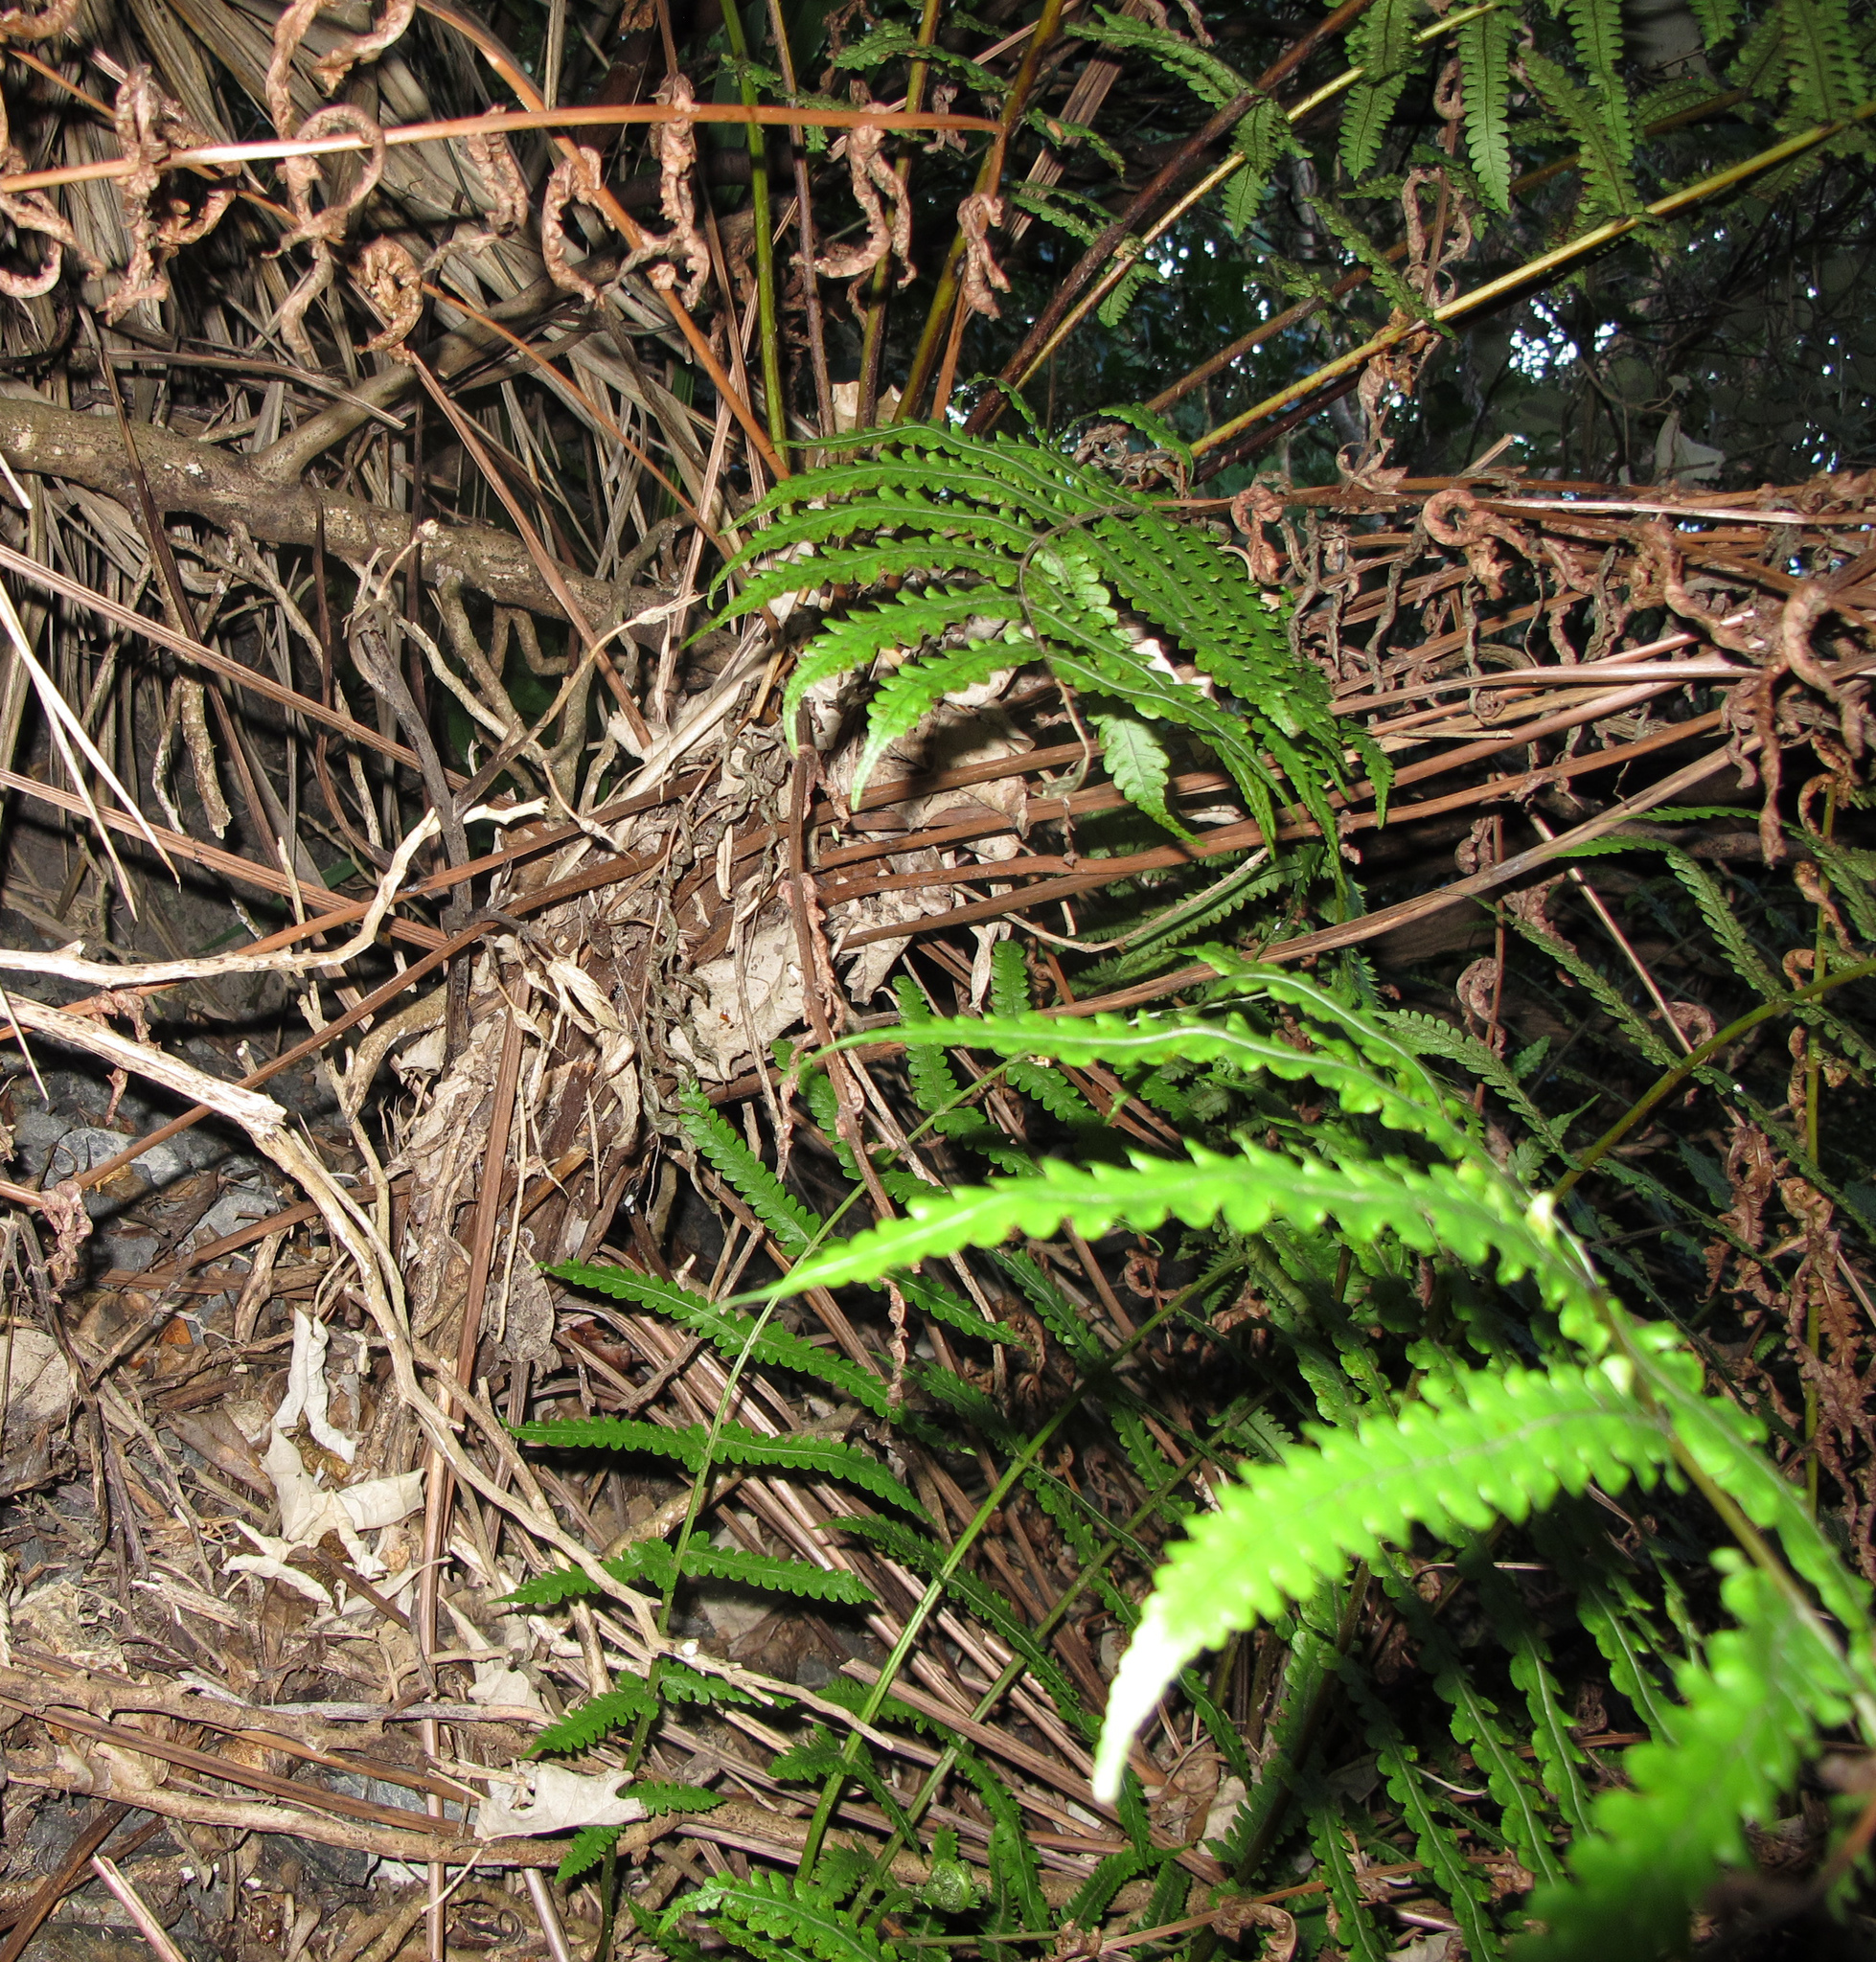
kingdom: Plantae
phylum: Tracheophyta
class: Polypodiopsida
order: Polypodiales
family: Thelypteridaceae
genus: Pakau
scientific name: Pakau pennigera
